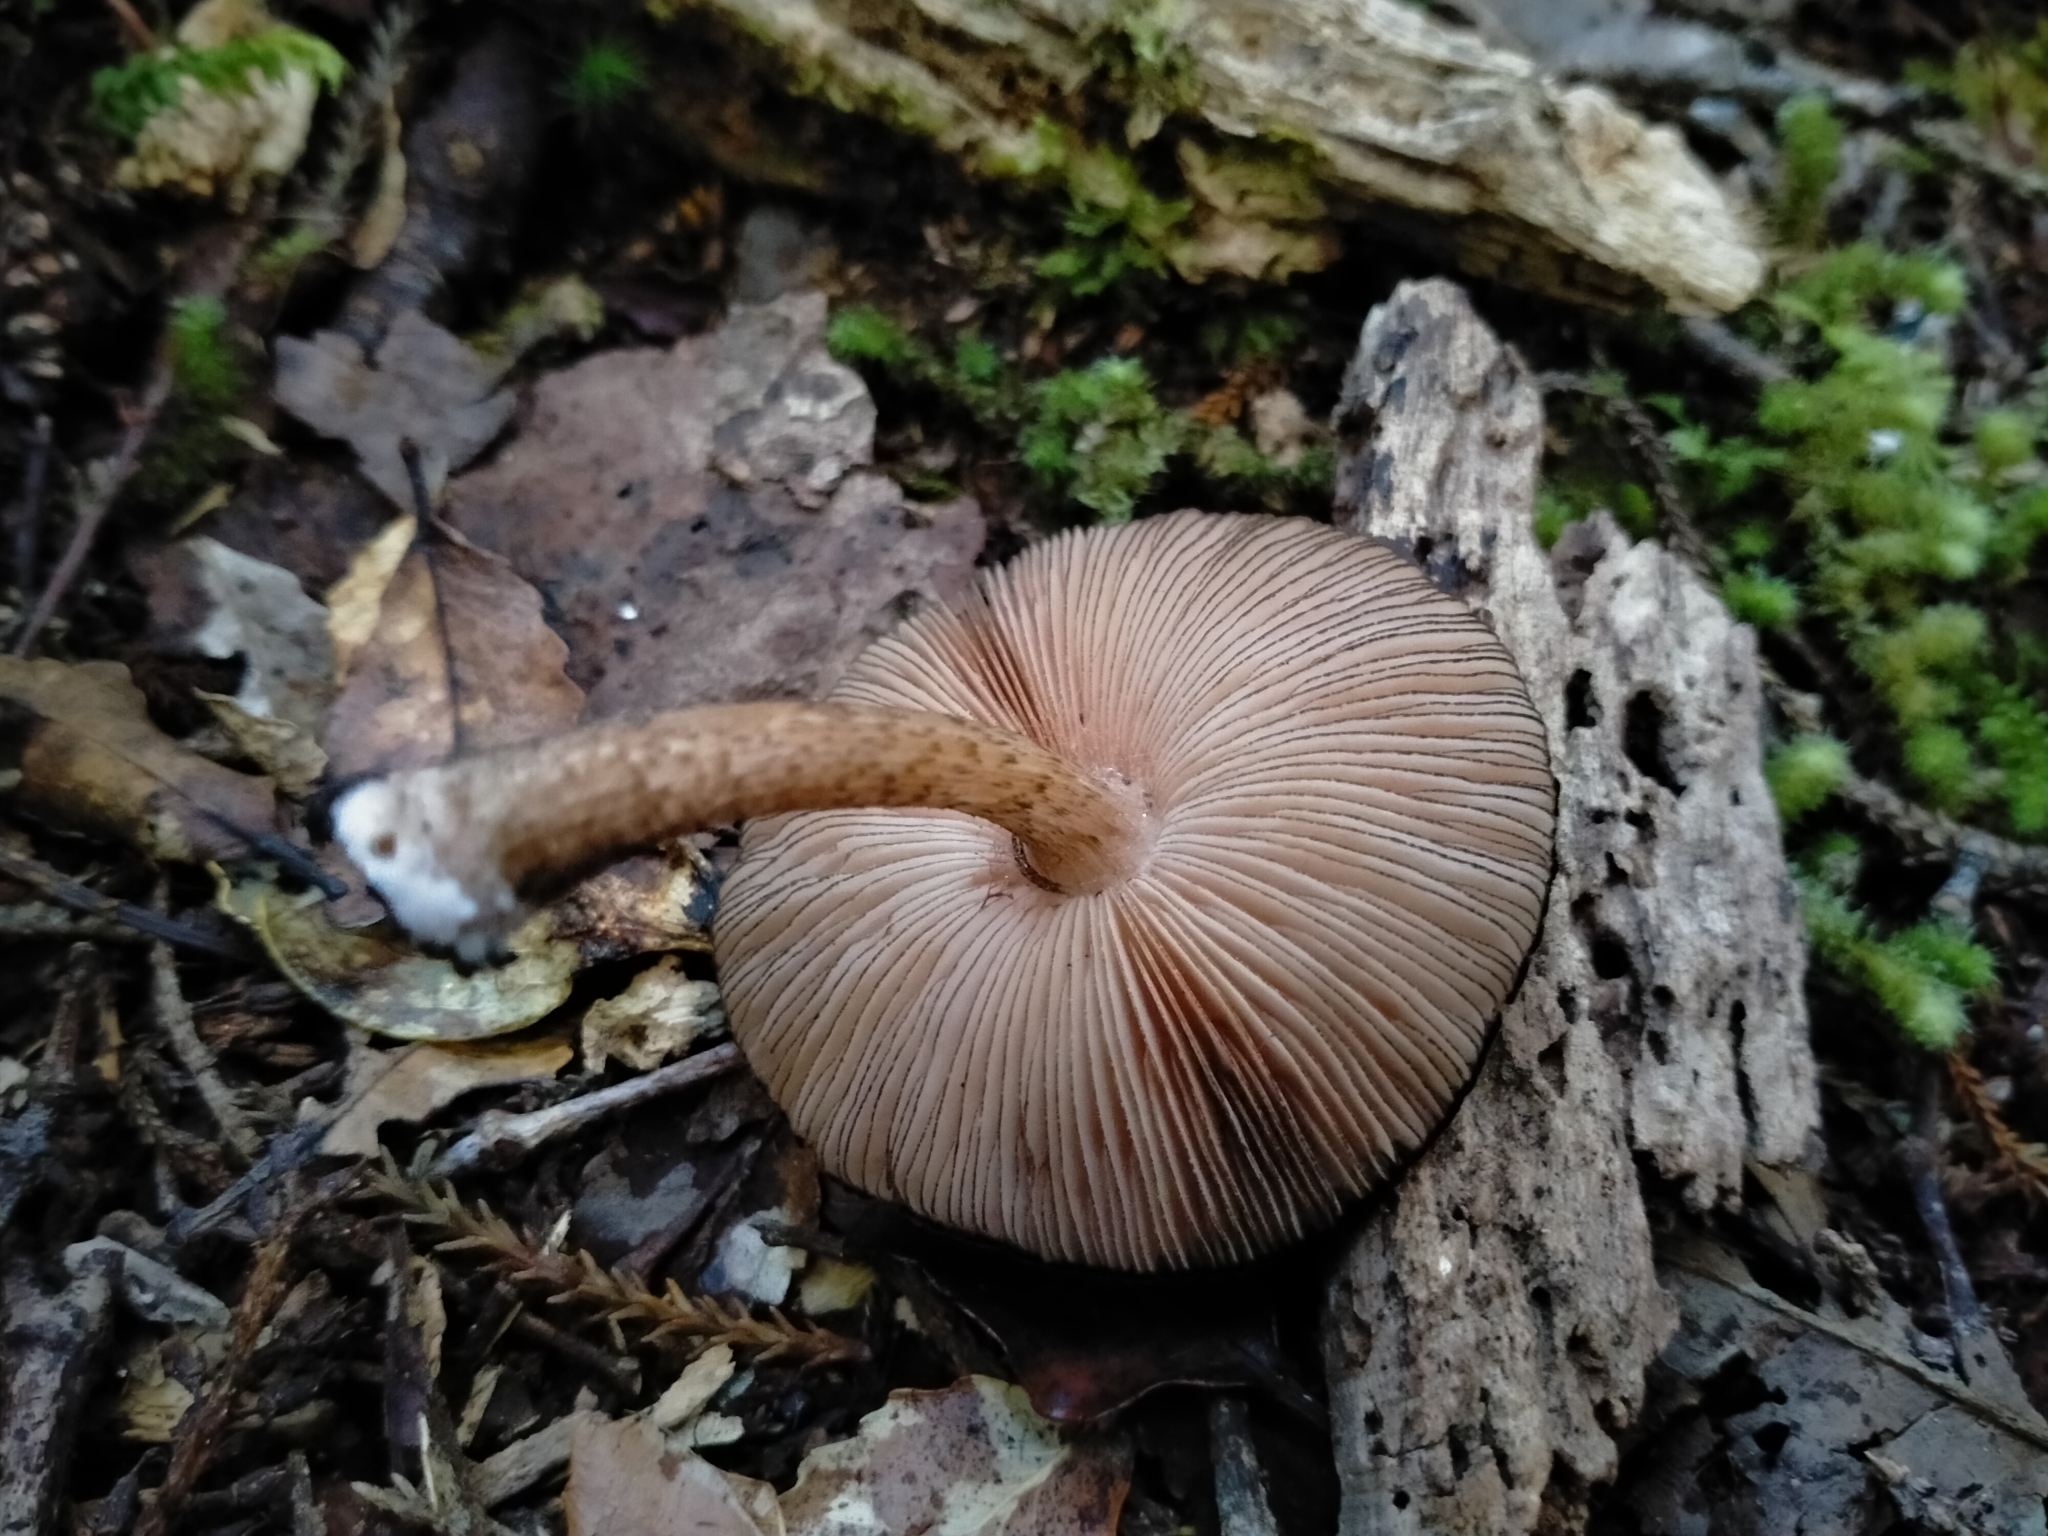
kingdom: Fungi
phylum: Basidiomycota
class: Agaricomycetes
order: Agaricales
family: Pluteaceae
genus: Pluteus
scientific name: Pluteus perroseus
